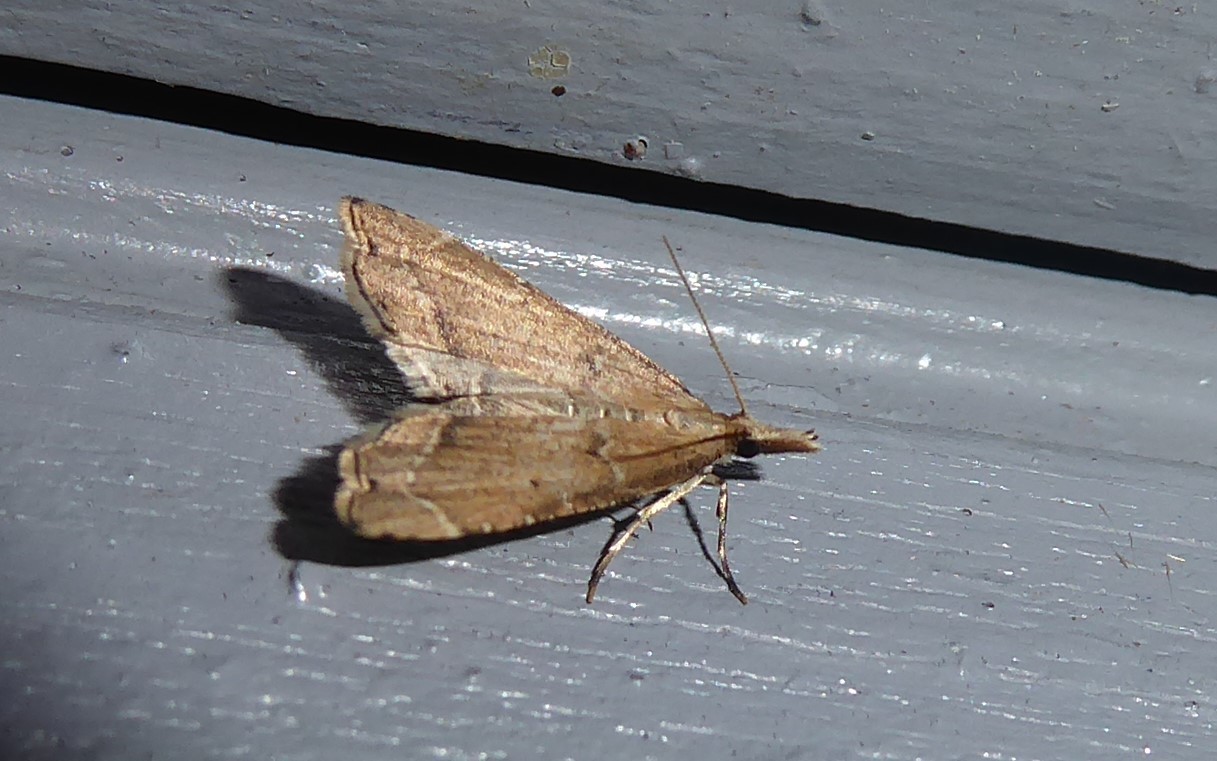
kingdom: Animalia
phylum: Arthropoda
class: Insecta
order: Lepidoptera
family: Crambidae
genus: Diplopseustis
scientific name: Diplopseustis perieresalis
